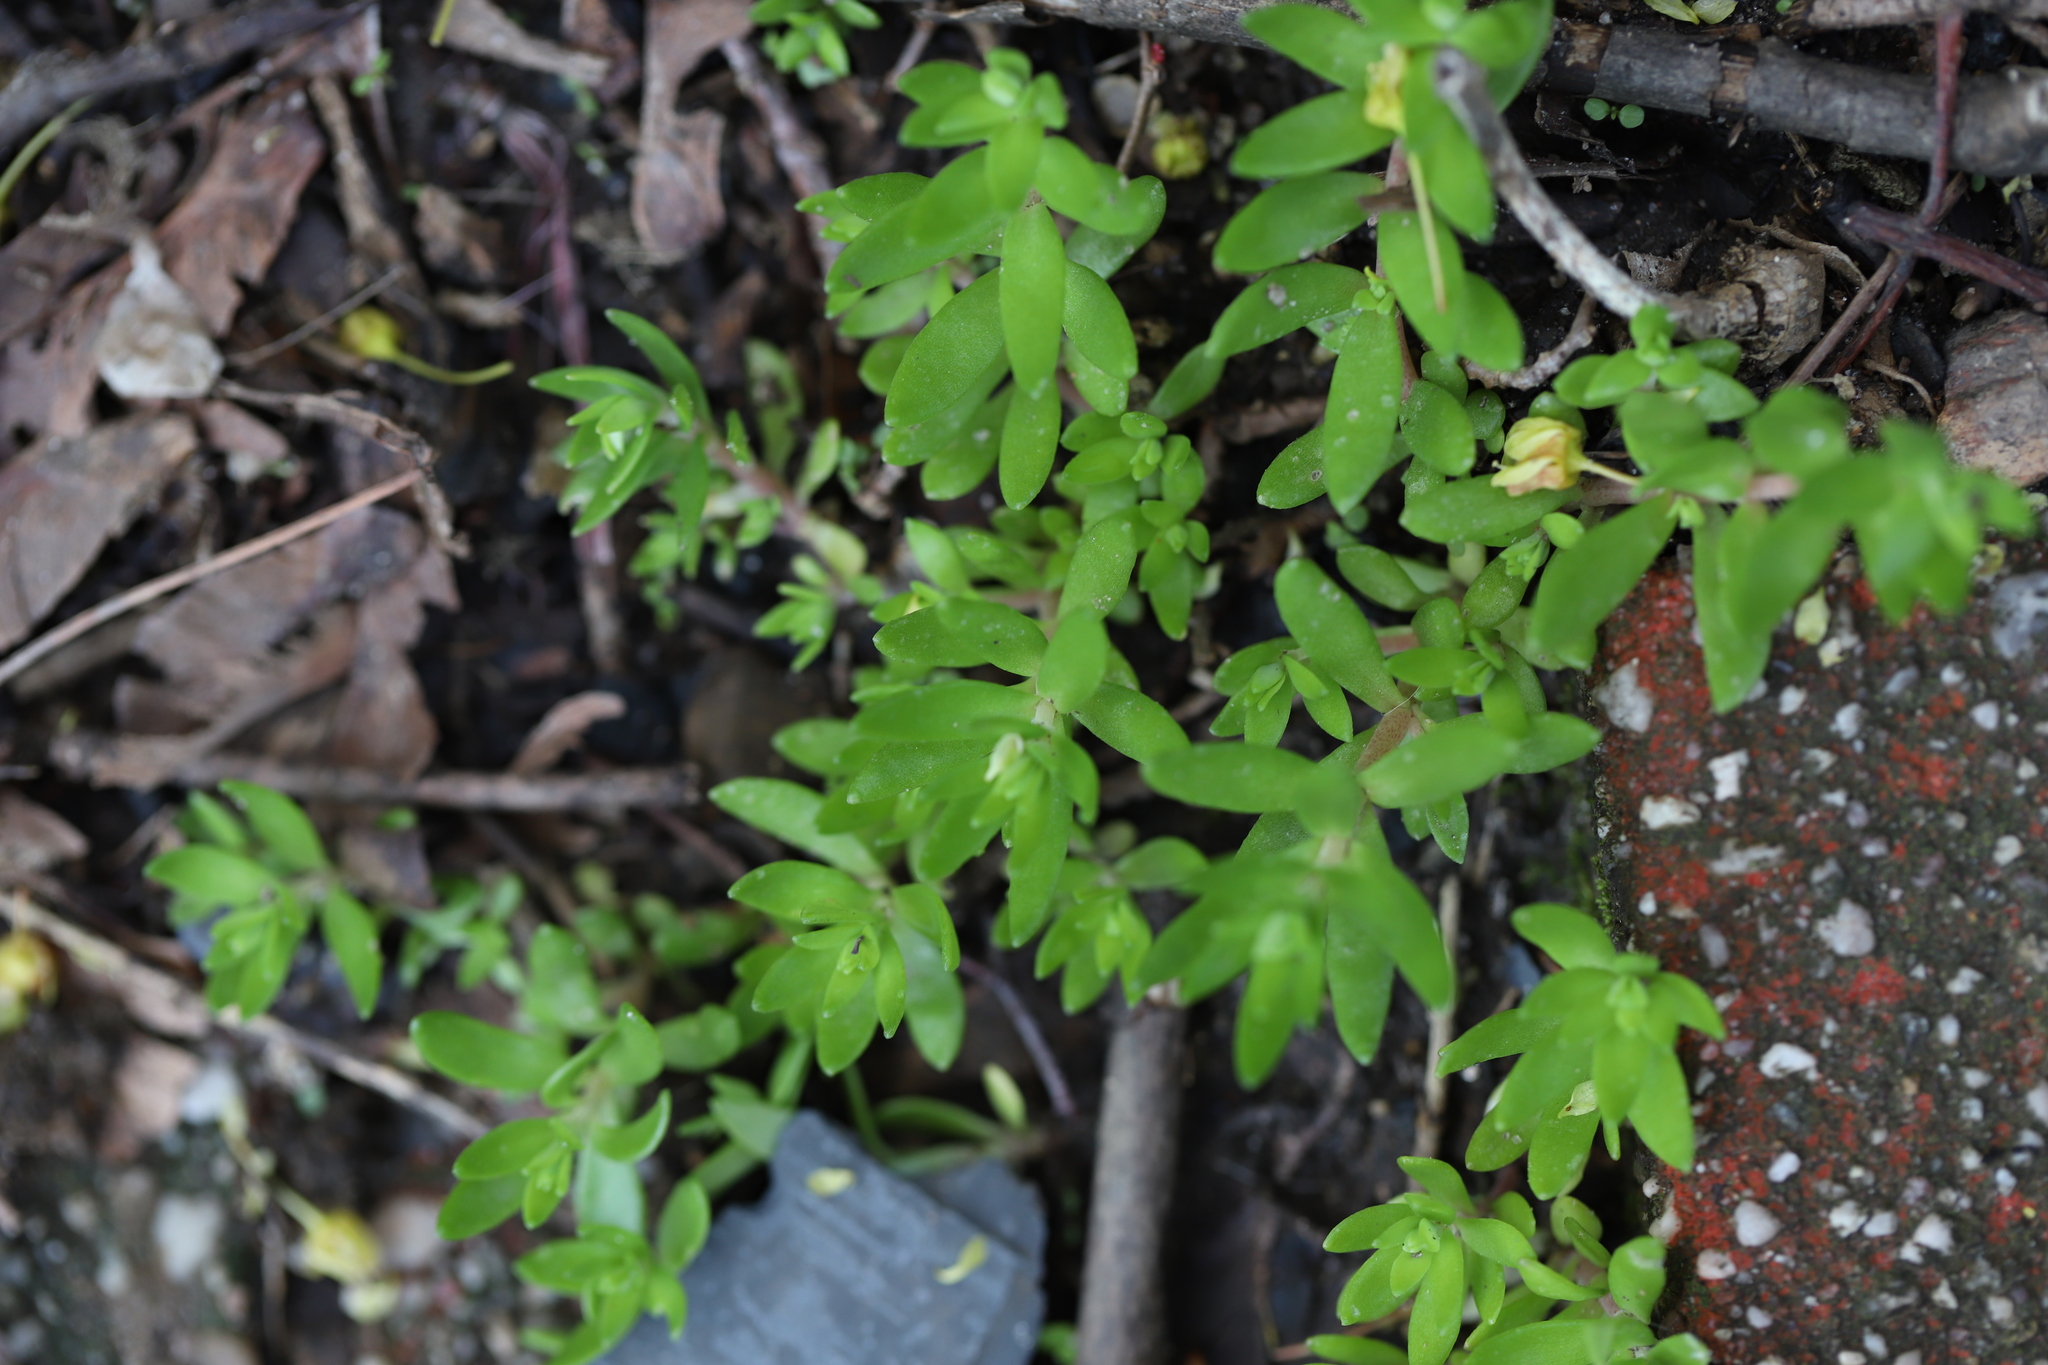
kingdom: Plantae
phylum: Tracheophyta
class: Magnoliopsida
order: Saxifragales
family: Crassulaceae
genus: Sedum
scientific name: Sedum sarmentosum
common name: Stringy stonecrop
